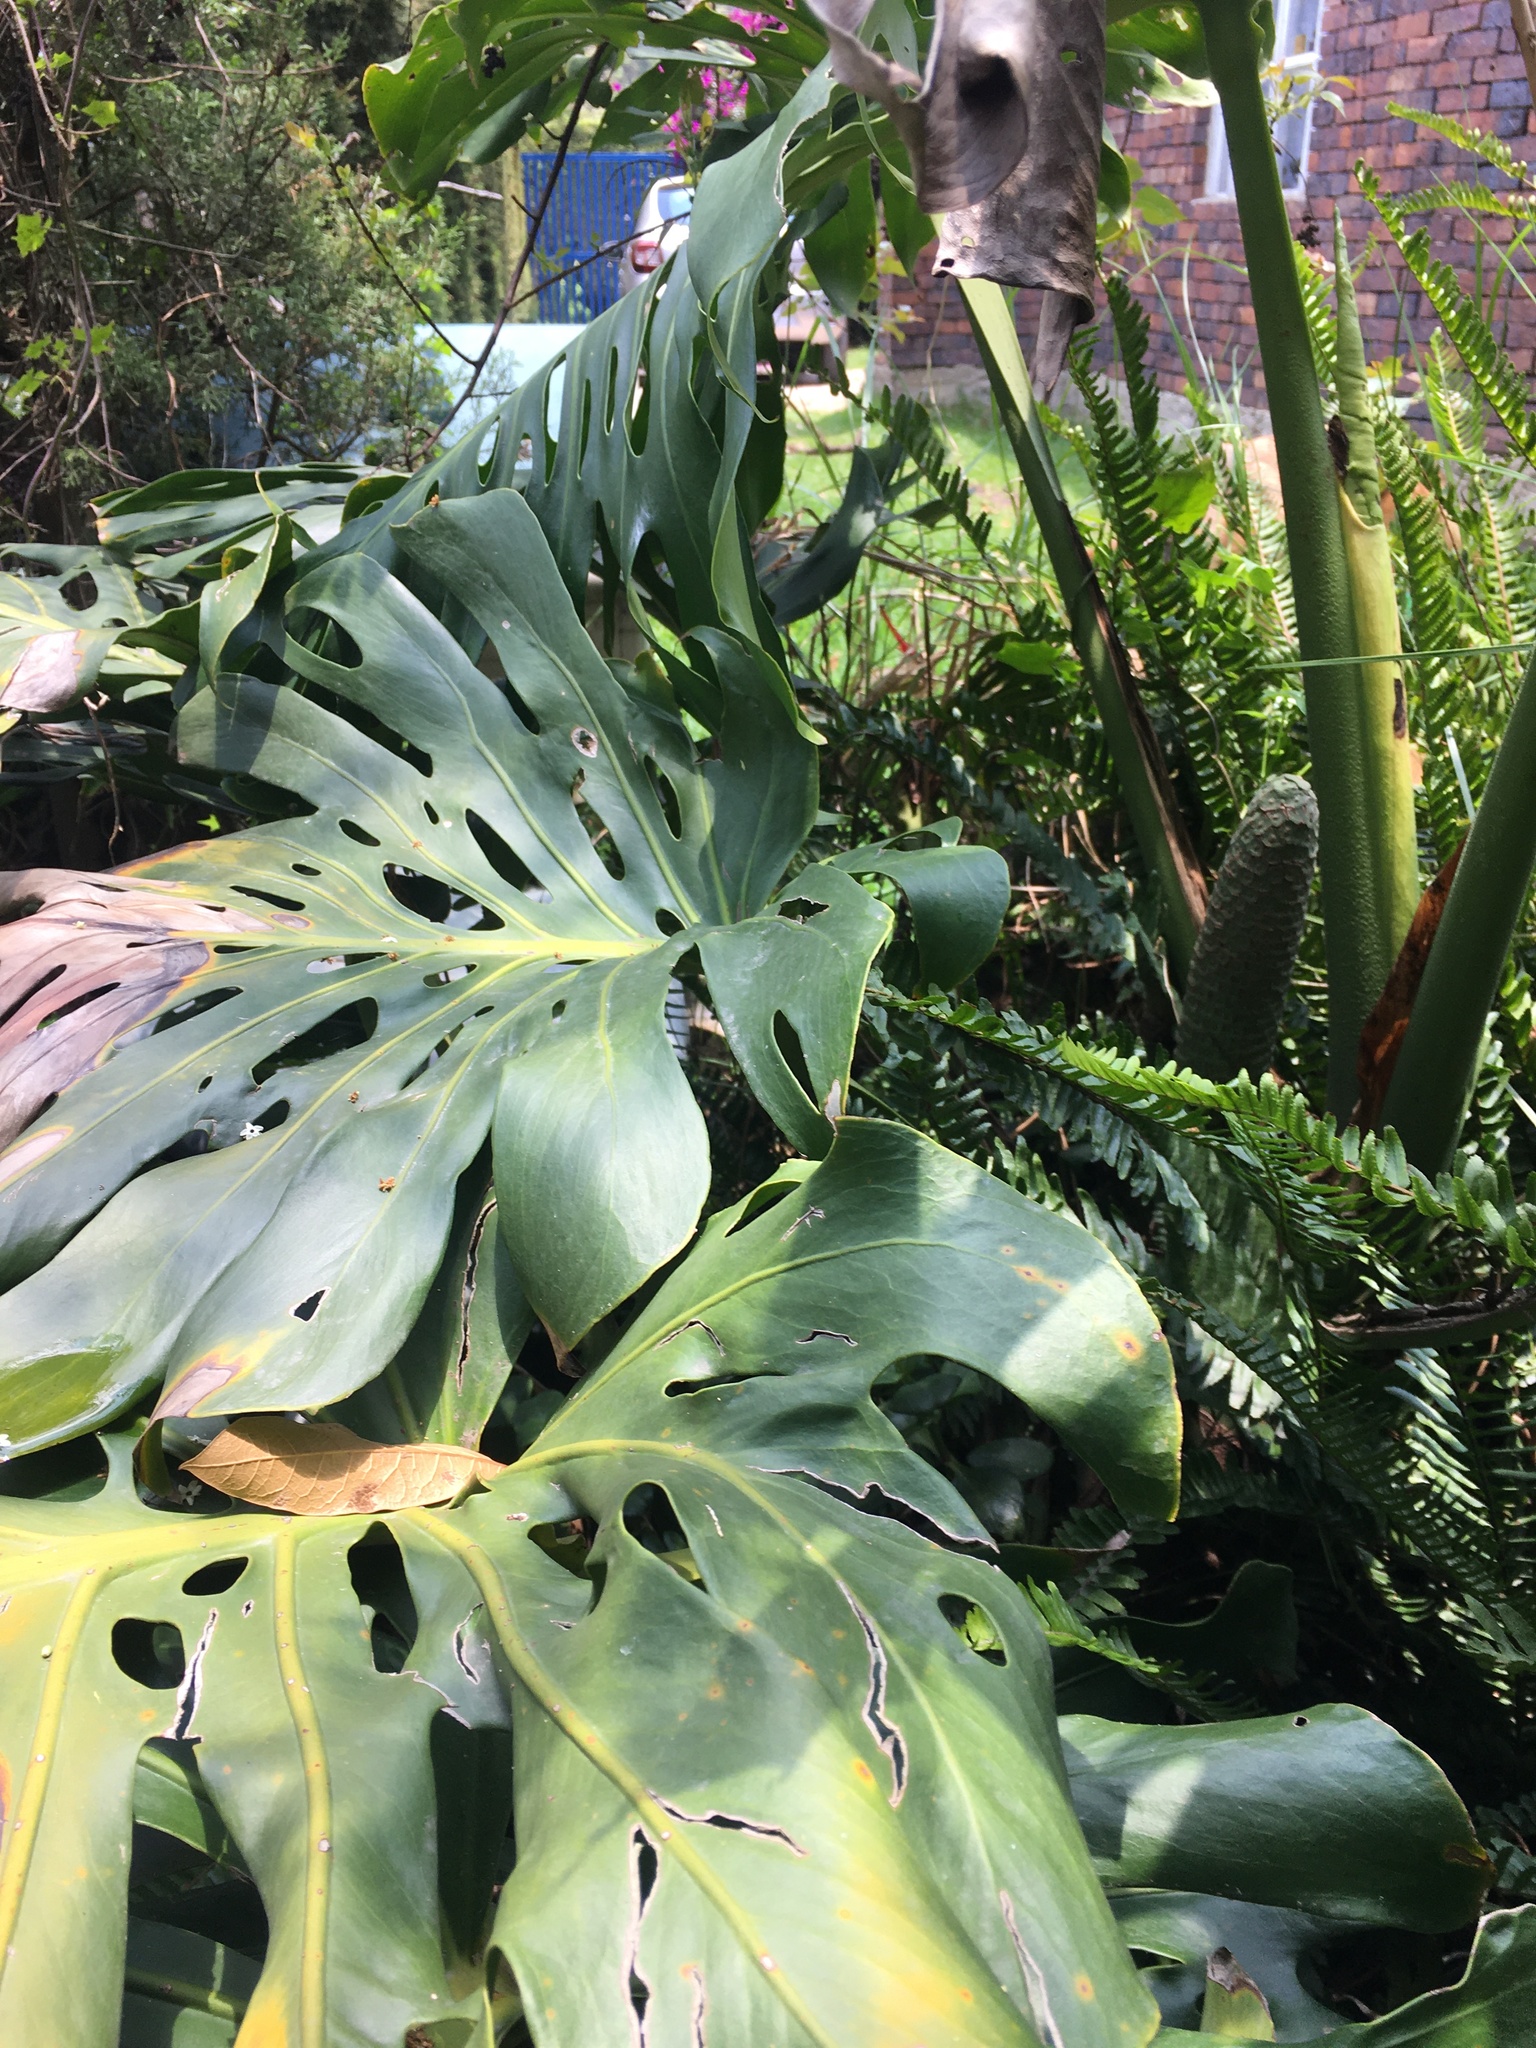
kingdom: Plantae
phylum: Tracheophyta
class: Liliopsida
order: Alismatales
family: Araceae
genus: Monstera
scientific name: Monstera deliciosa
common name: Cut-leaf-philodendron
